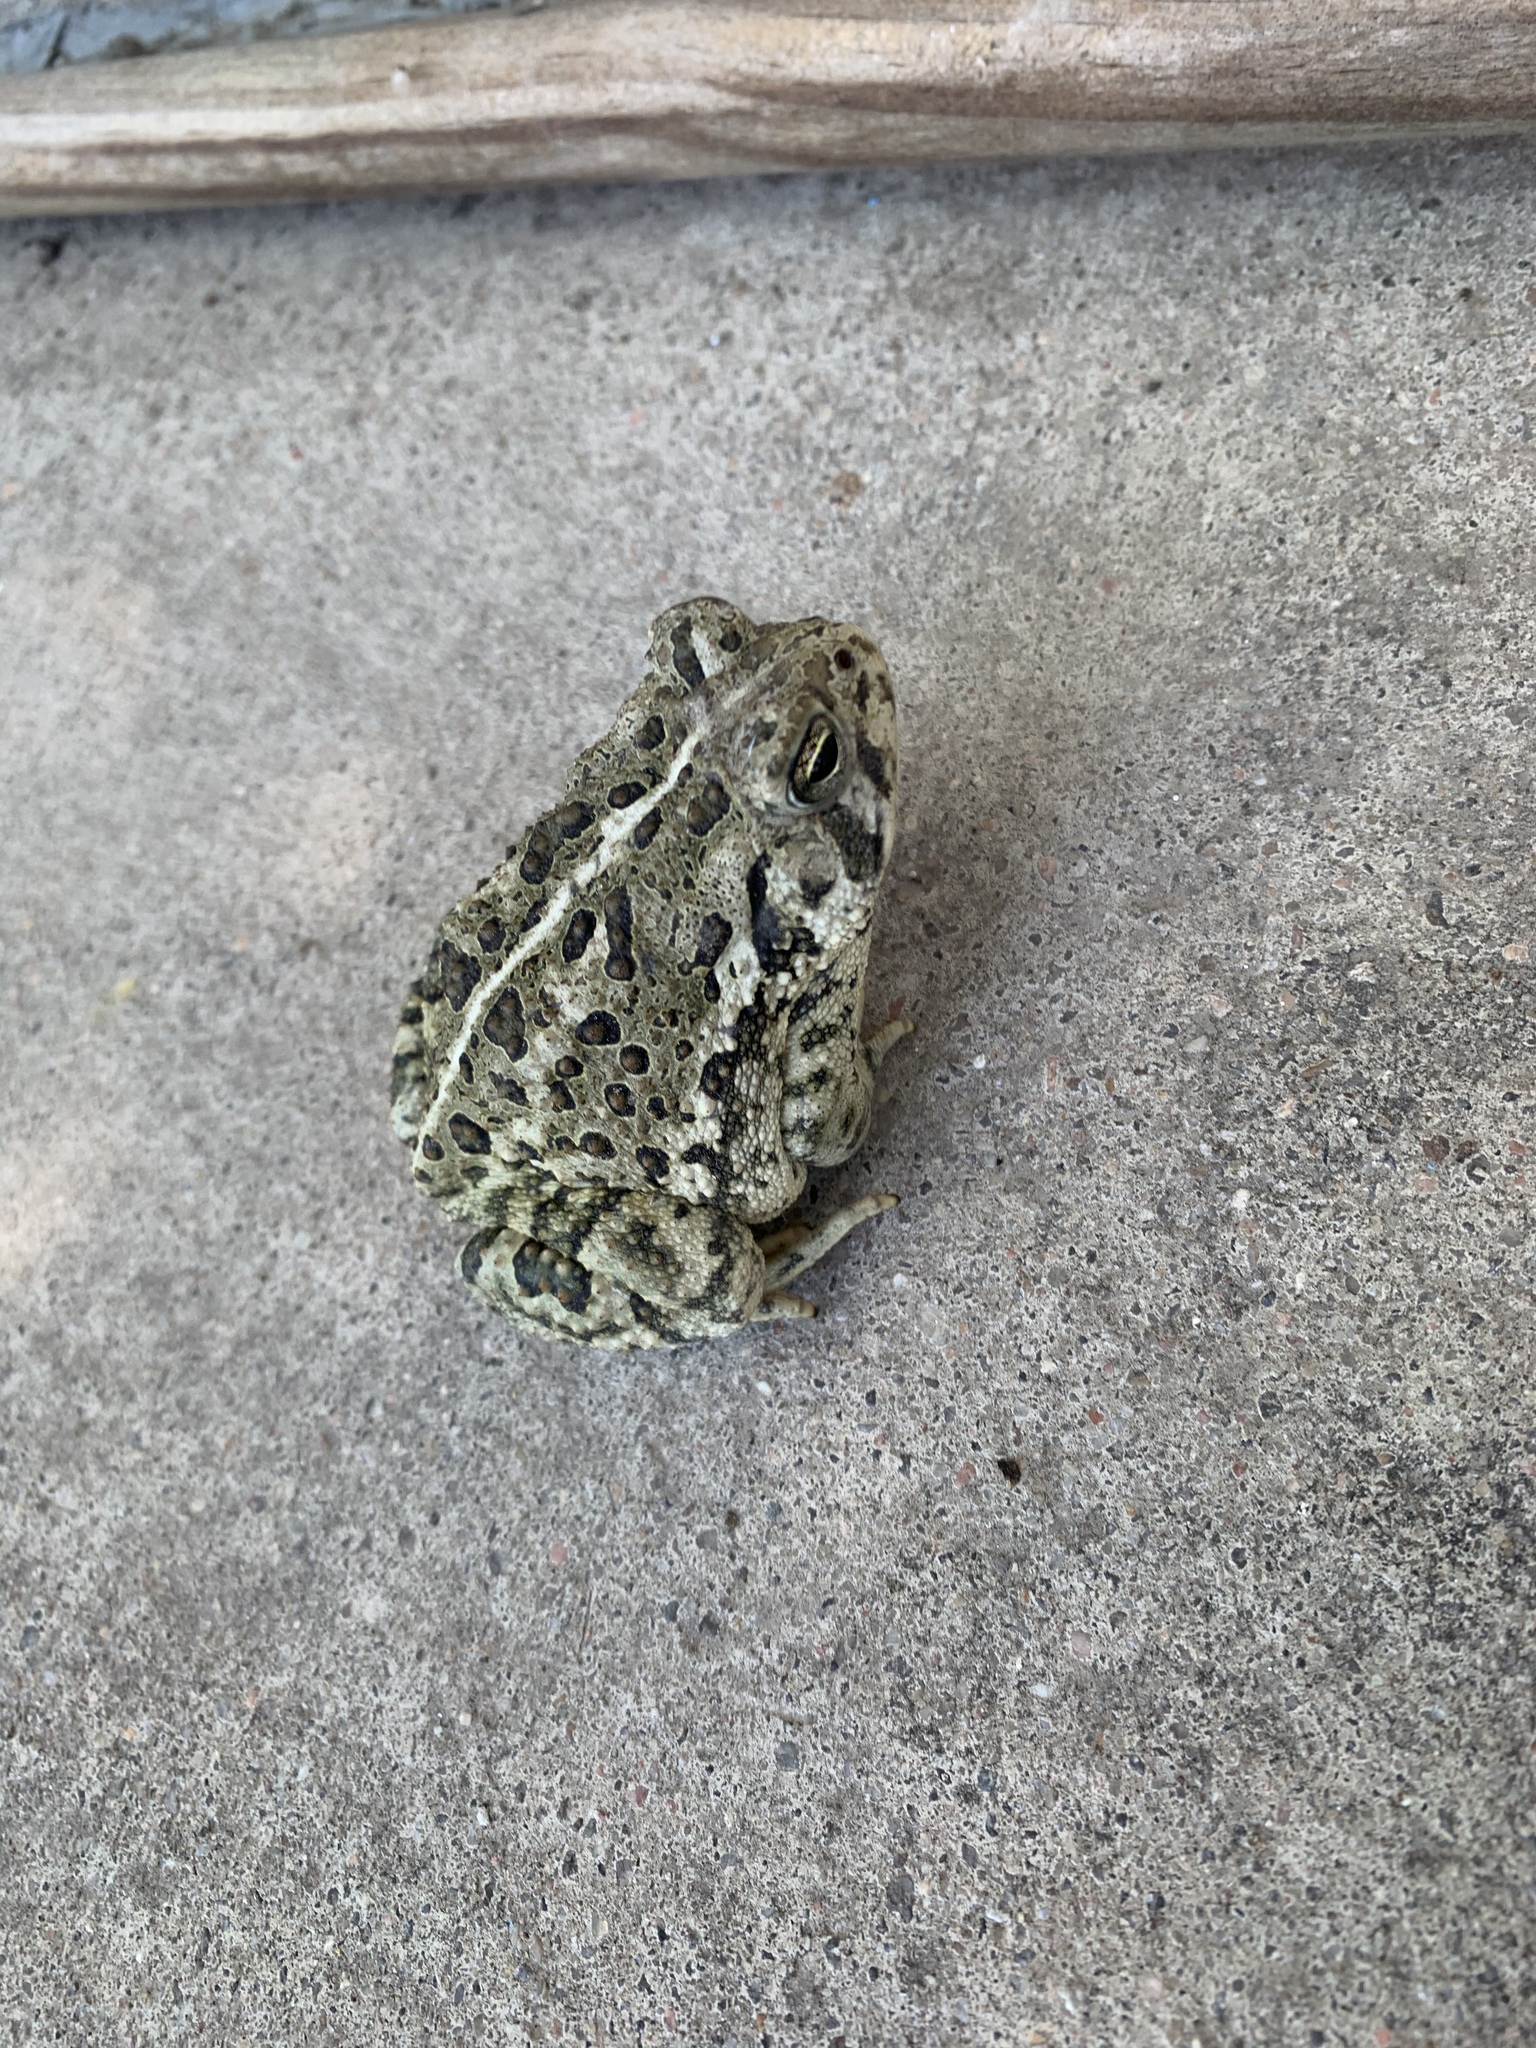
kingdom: Animalia
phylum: Chordata
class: Amphibia
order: Anura
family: Bufonidae
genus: Anaxyrus
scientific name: Anaxyrus woodhousii
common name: Woodhouse's toad
